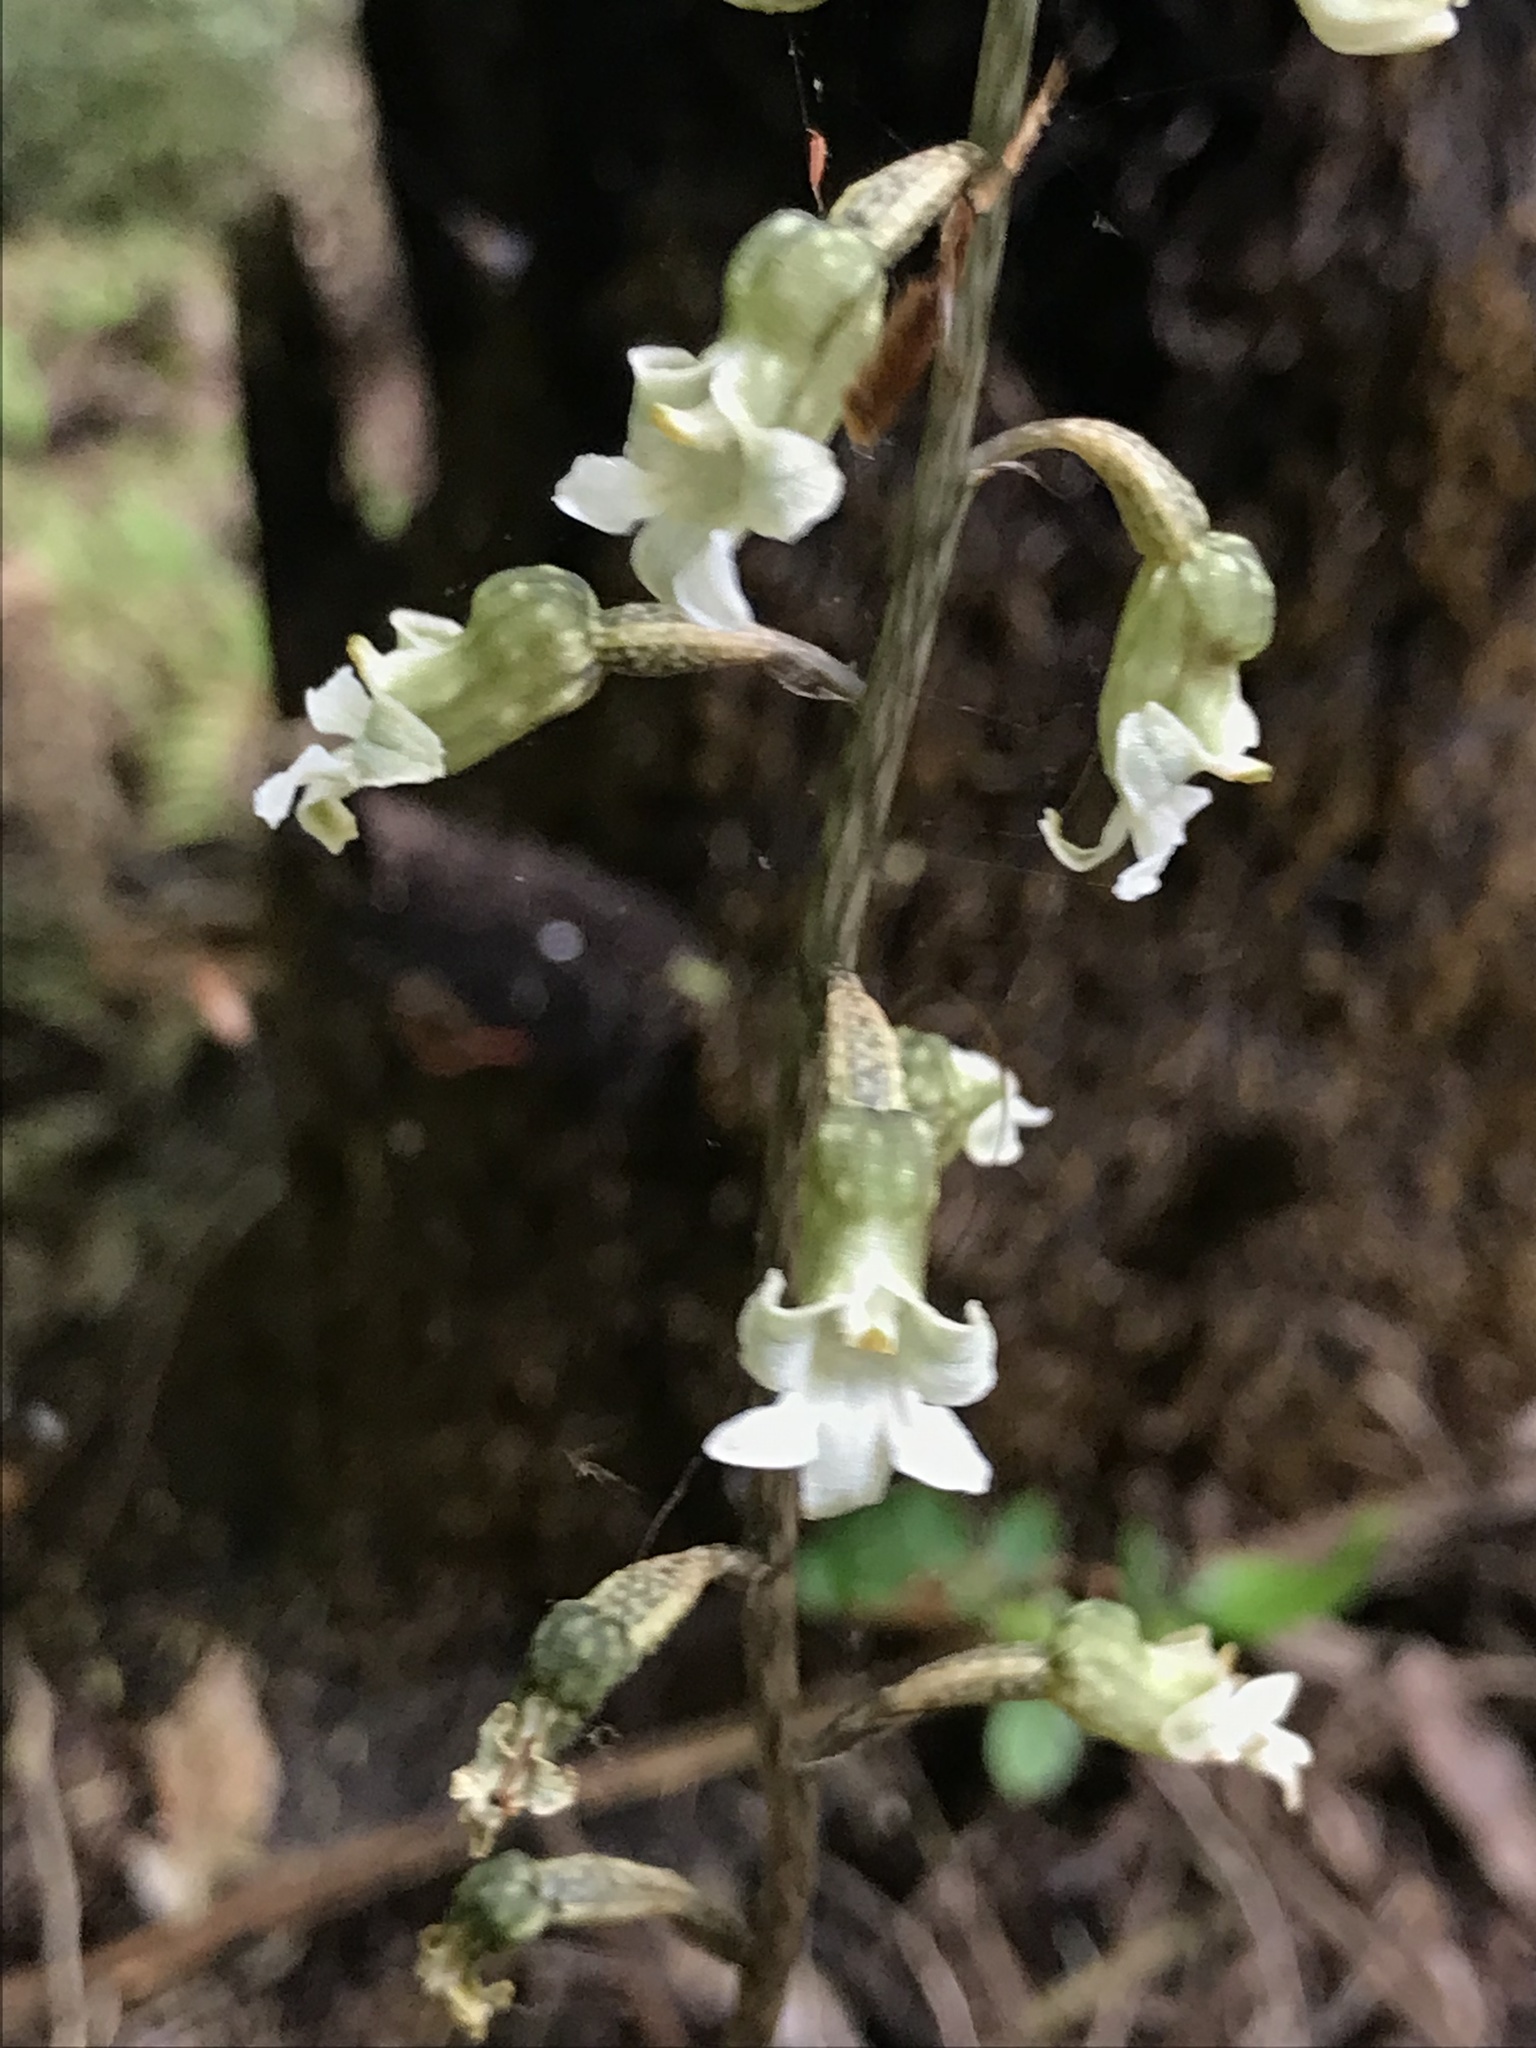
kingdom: Plantae
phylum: Tracheophyta
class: Liliopsida
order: Asparagales
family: Orchidaceae
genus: Gastrodia
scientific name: Gastrodia cunninghamii
